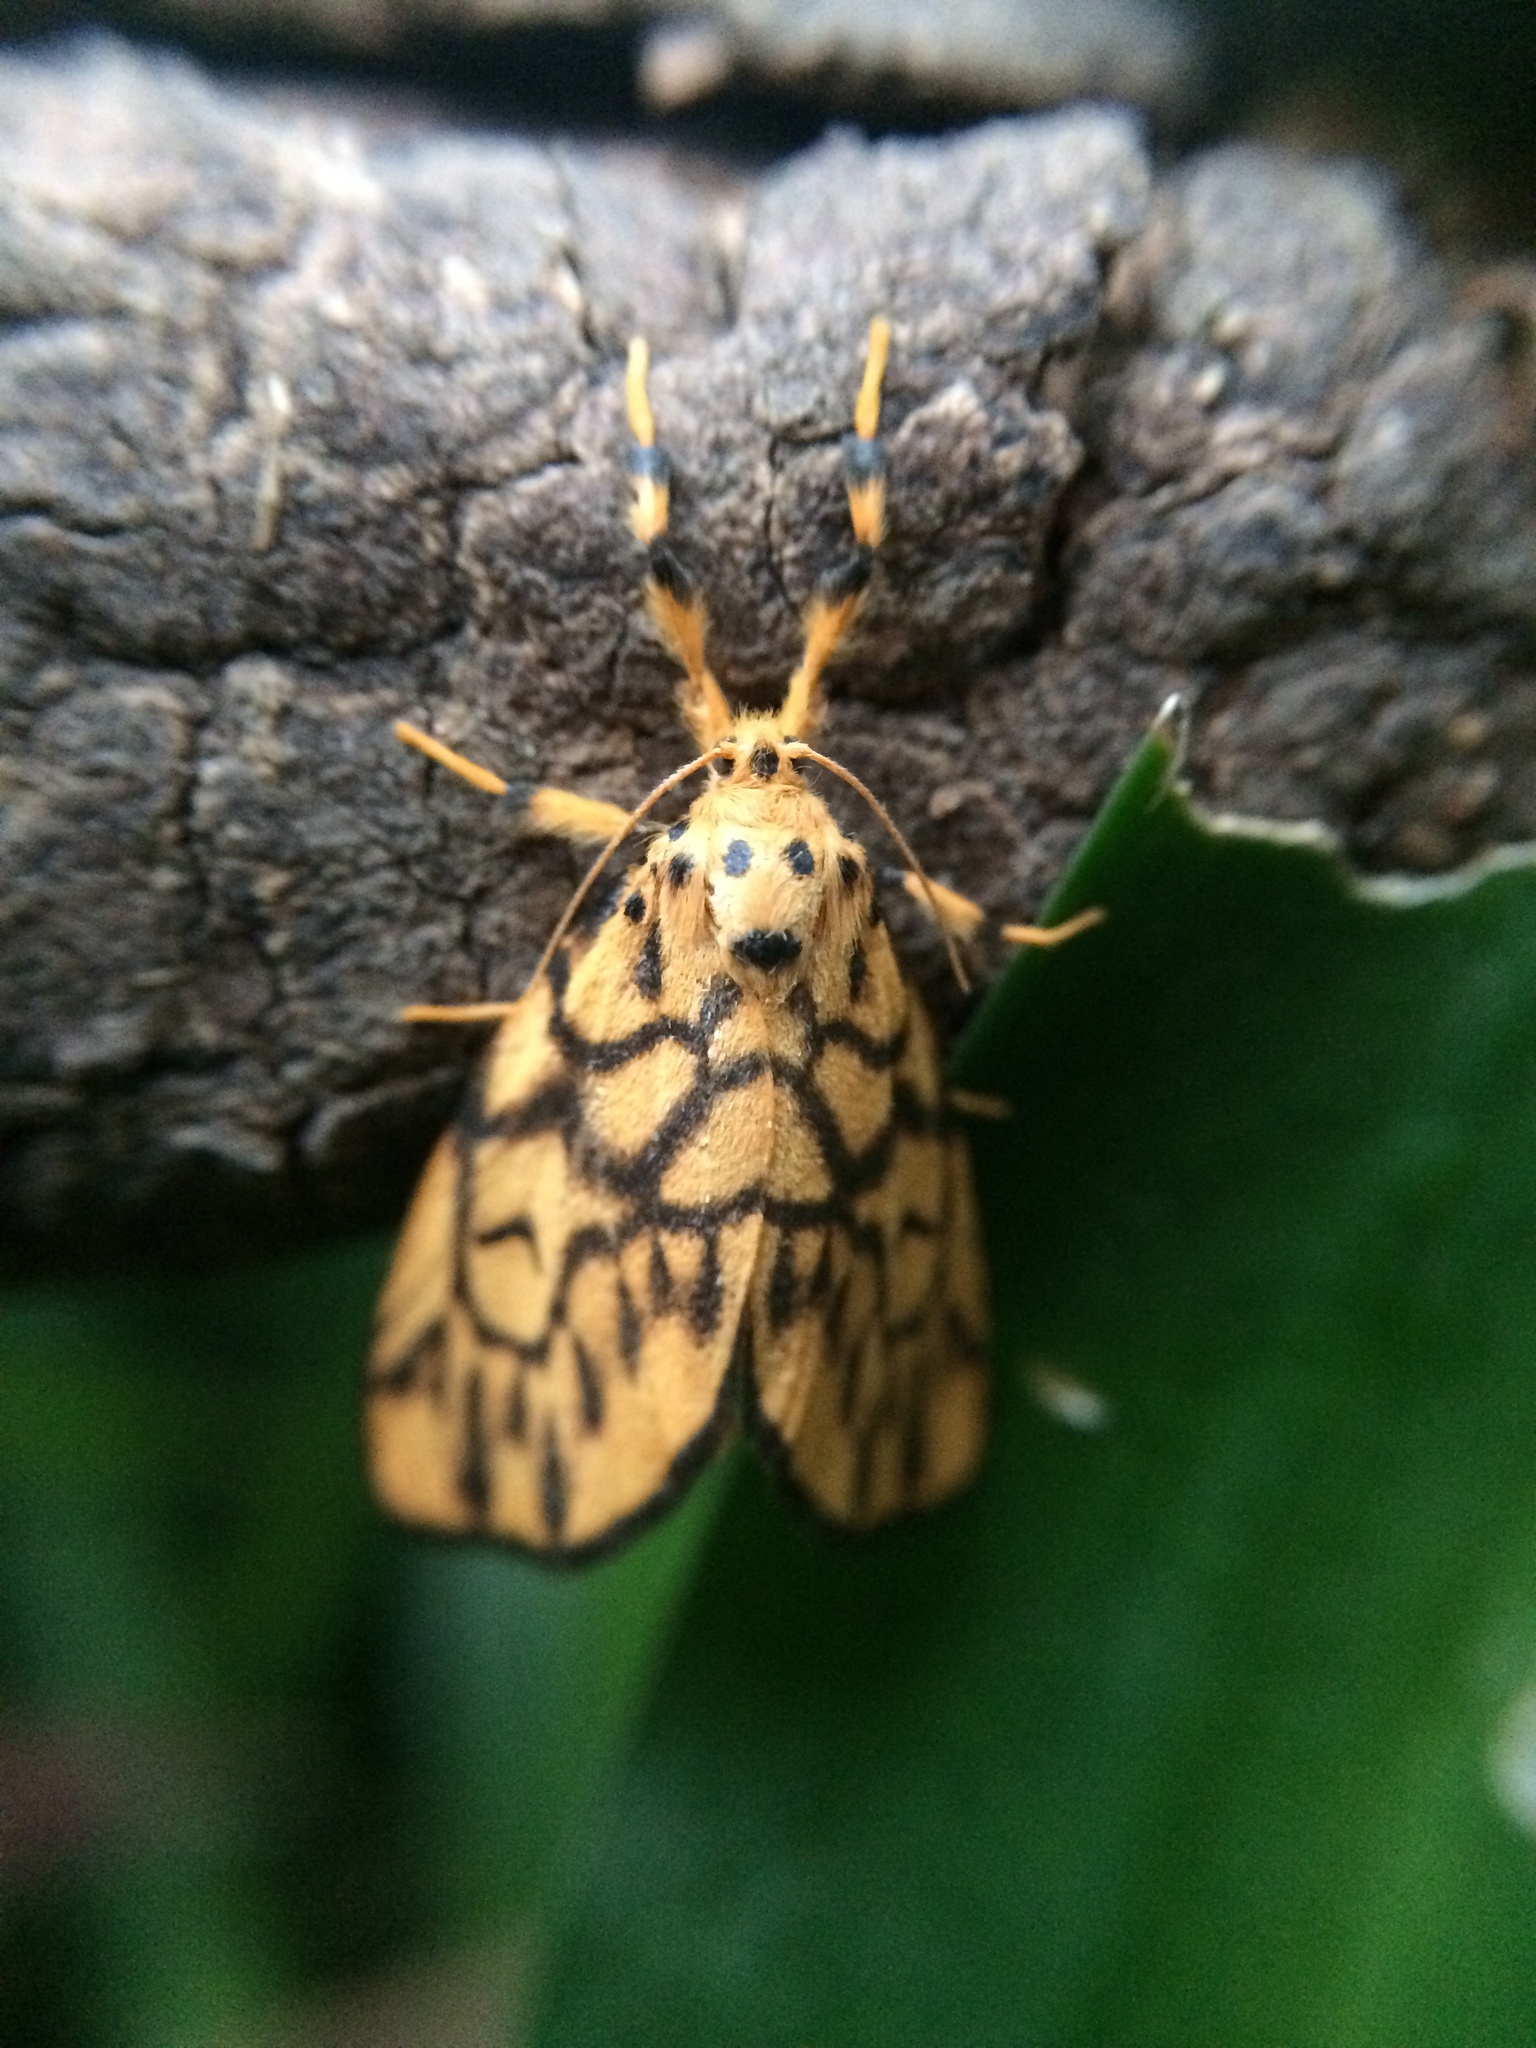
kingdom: Animalia
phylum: Arthropoda
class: Insecta
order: Lepidoptera
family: Erebidae
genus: Tumicla
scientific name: Tumicla sagenaria
